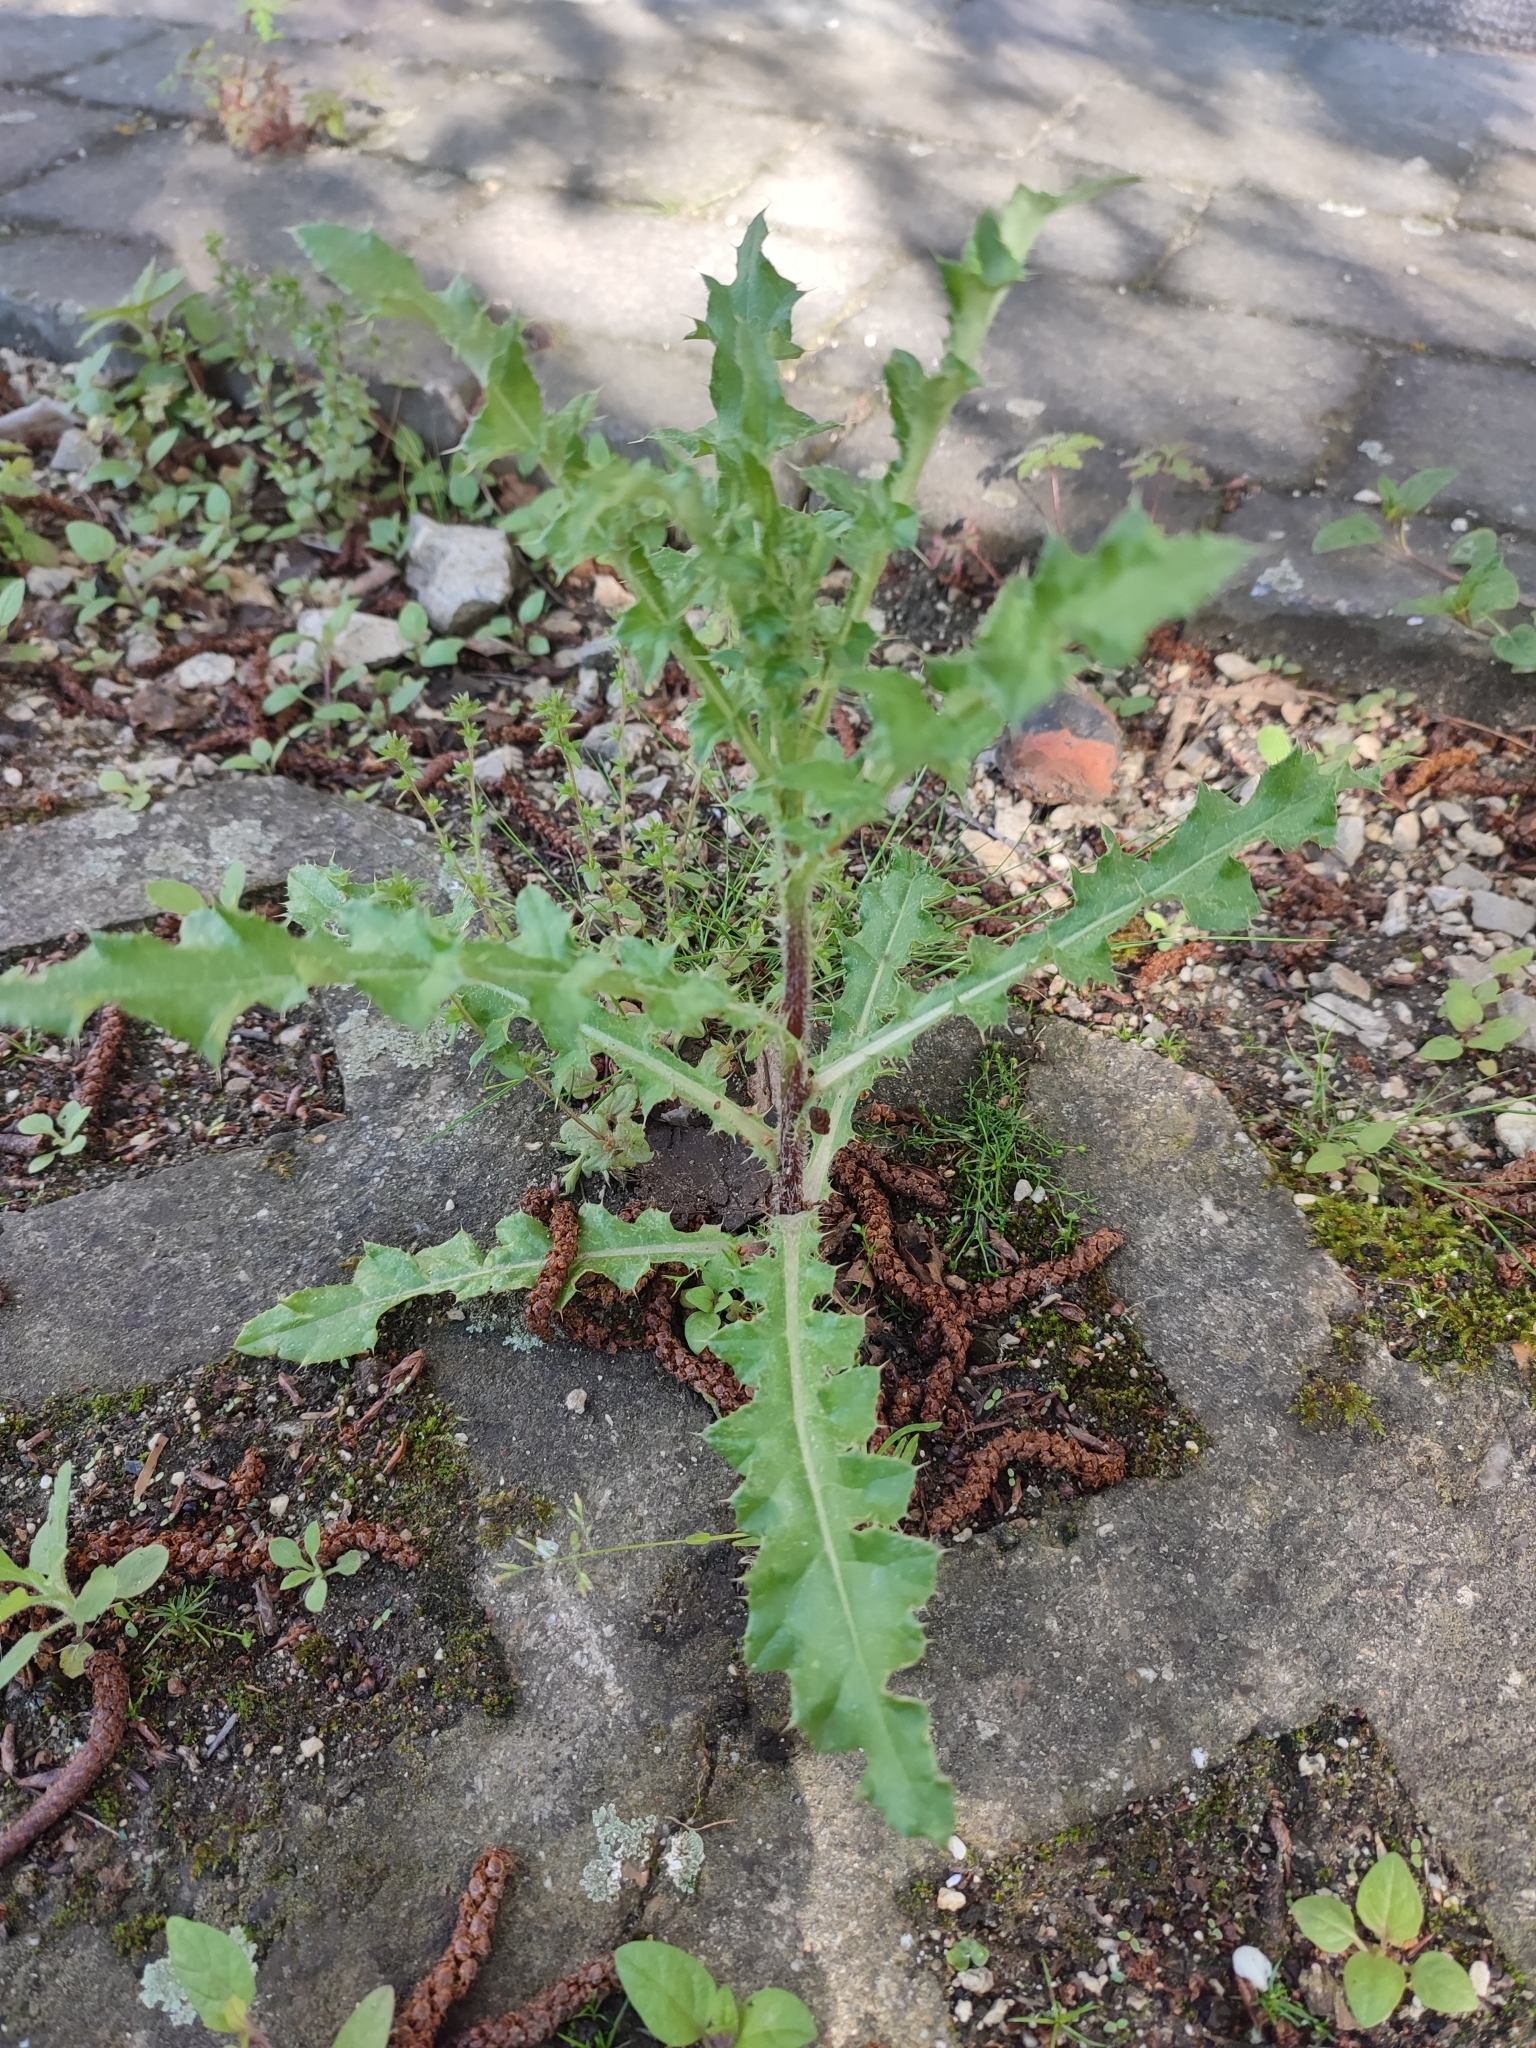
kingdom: Plantae
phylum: Tracheophyta
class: Magnoliopsida
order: Asterales
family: Asteraceae
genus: Cirsium
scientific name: Cirsium arvense
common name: Creeping thistle
